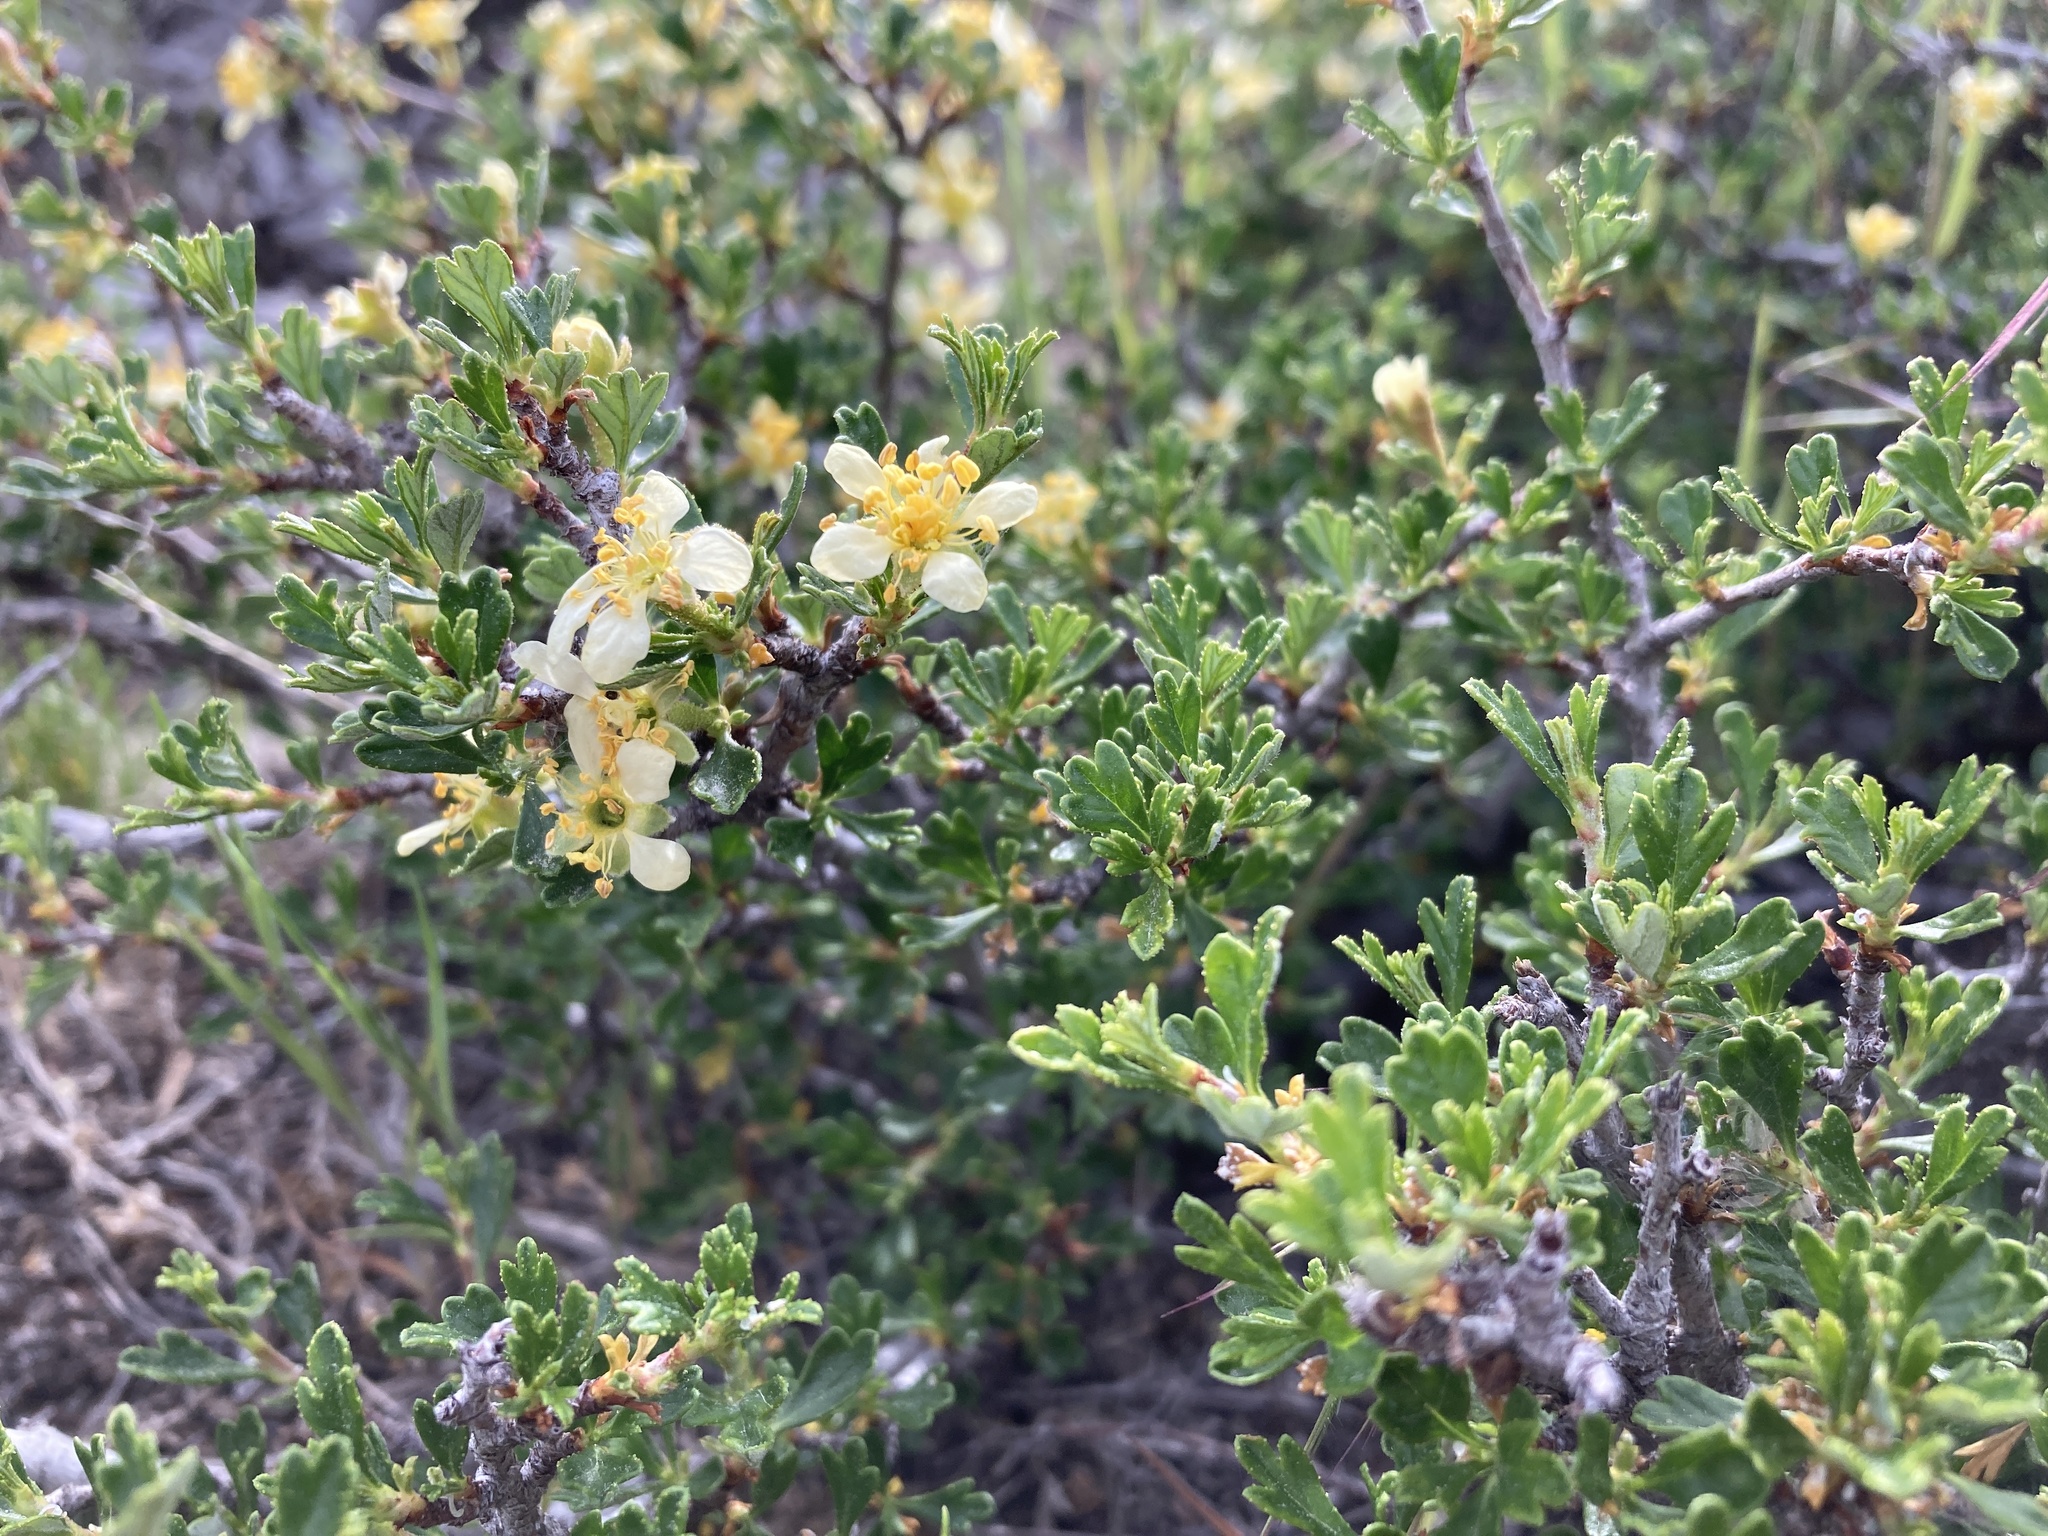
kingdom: Plantae
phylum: Tracheophyta
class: Magnoliopsida
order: Rosales
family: Rosaceae
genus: Purshia
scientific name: Purshia tridentata
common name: Antelope bitterbrush
